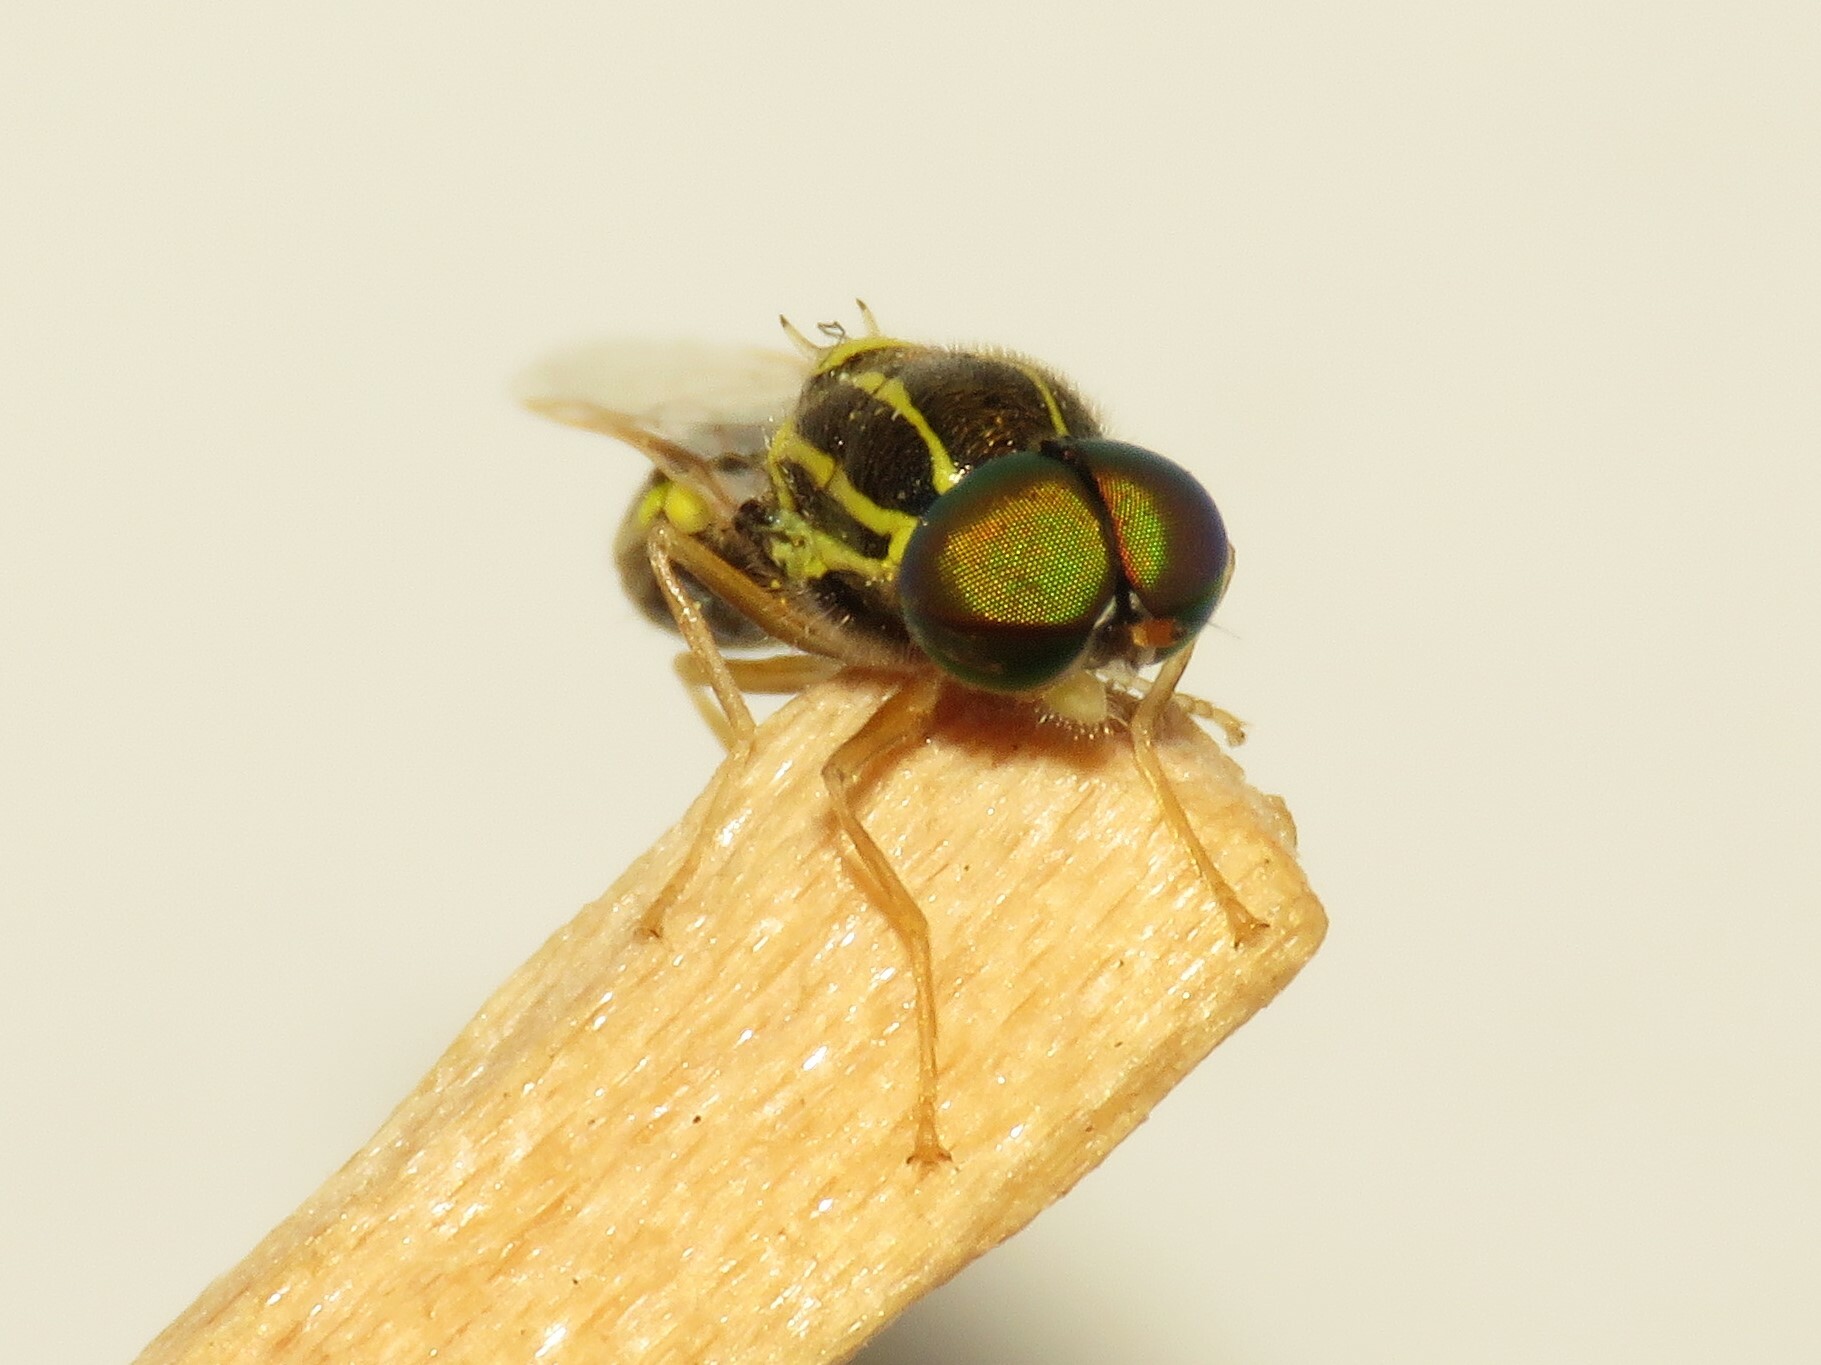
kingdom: Animalia
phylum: Arthropoda
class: Insecta
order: Diptera
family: Stratiomyidae
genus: Oxycera
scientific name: Oxycera variegata
